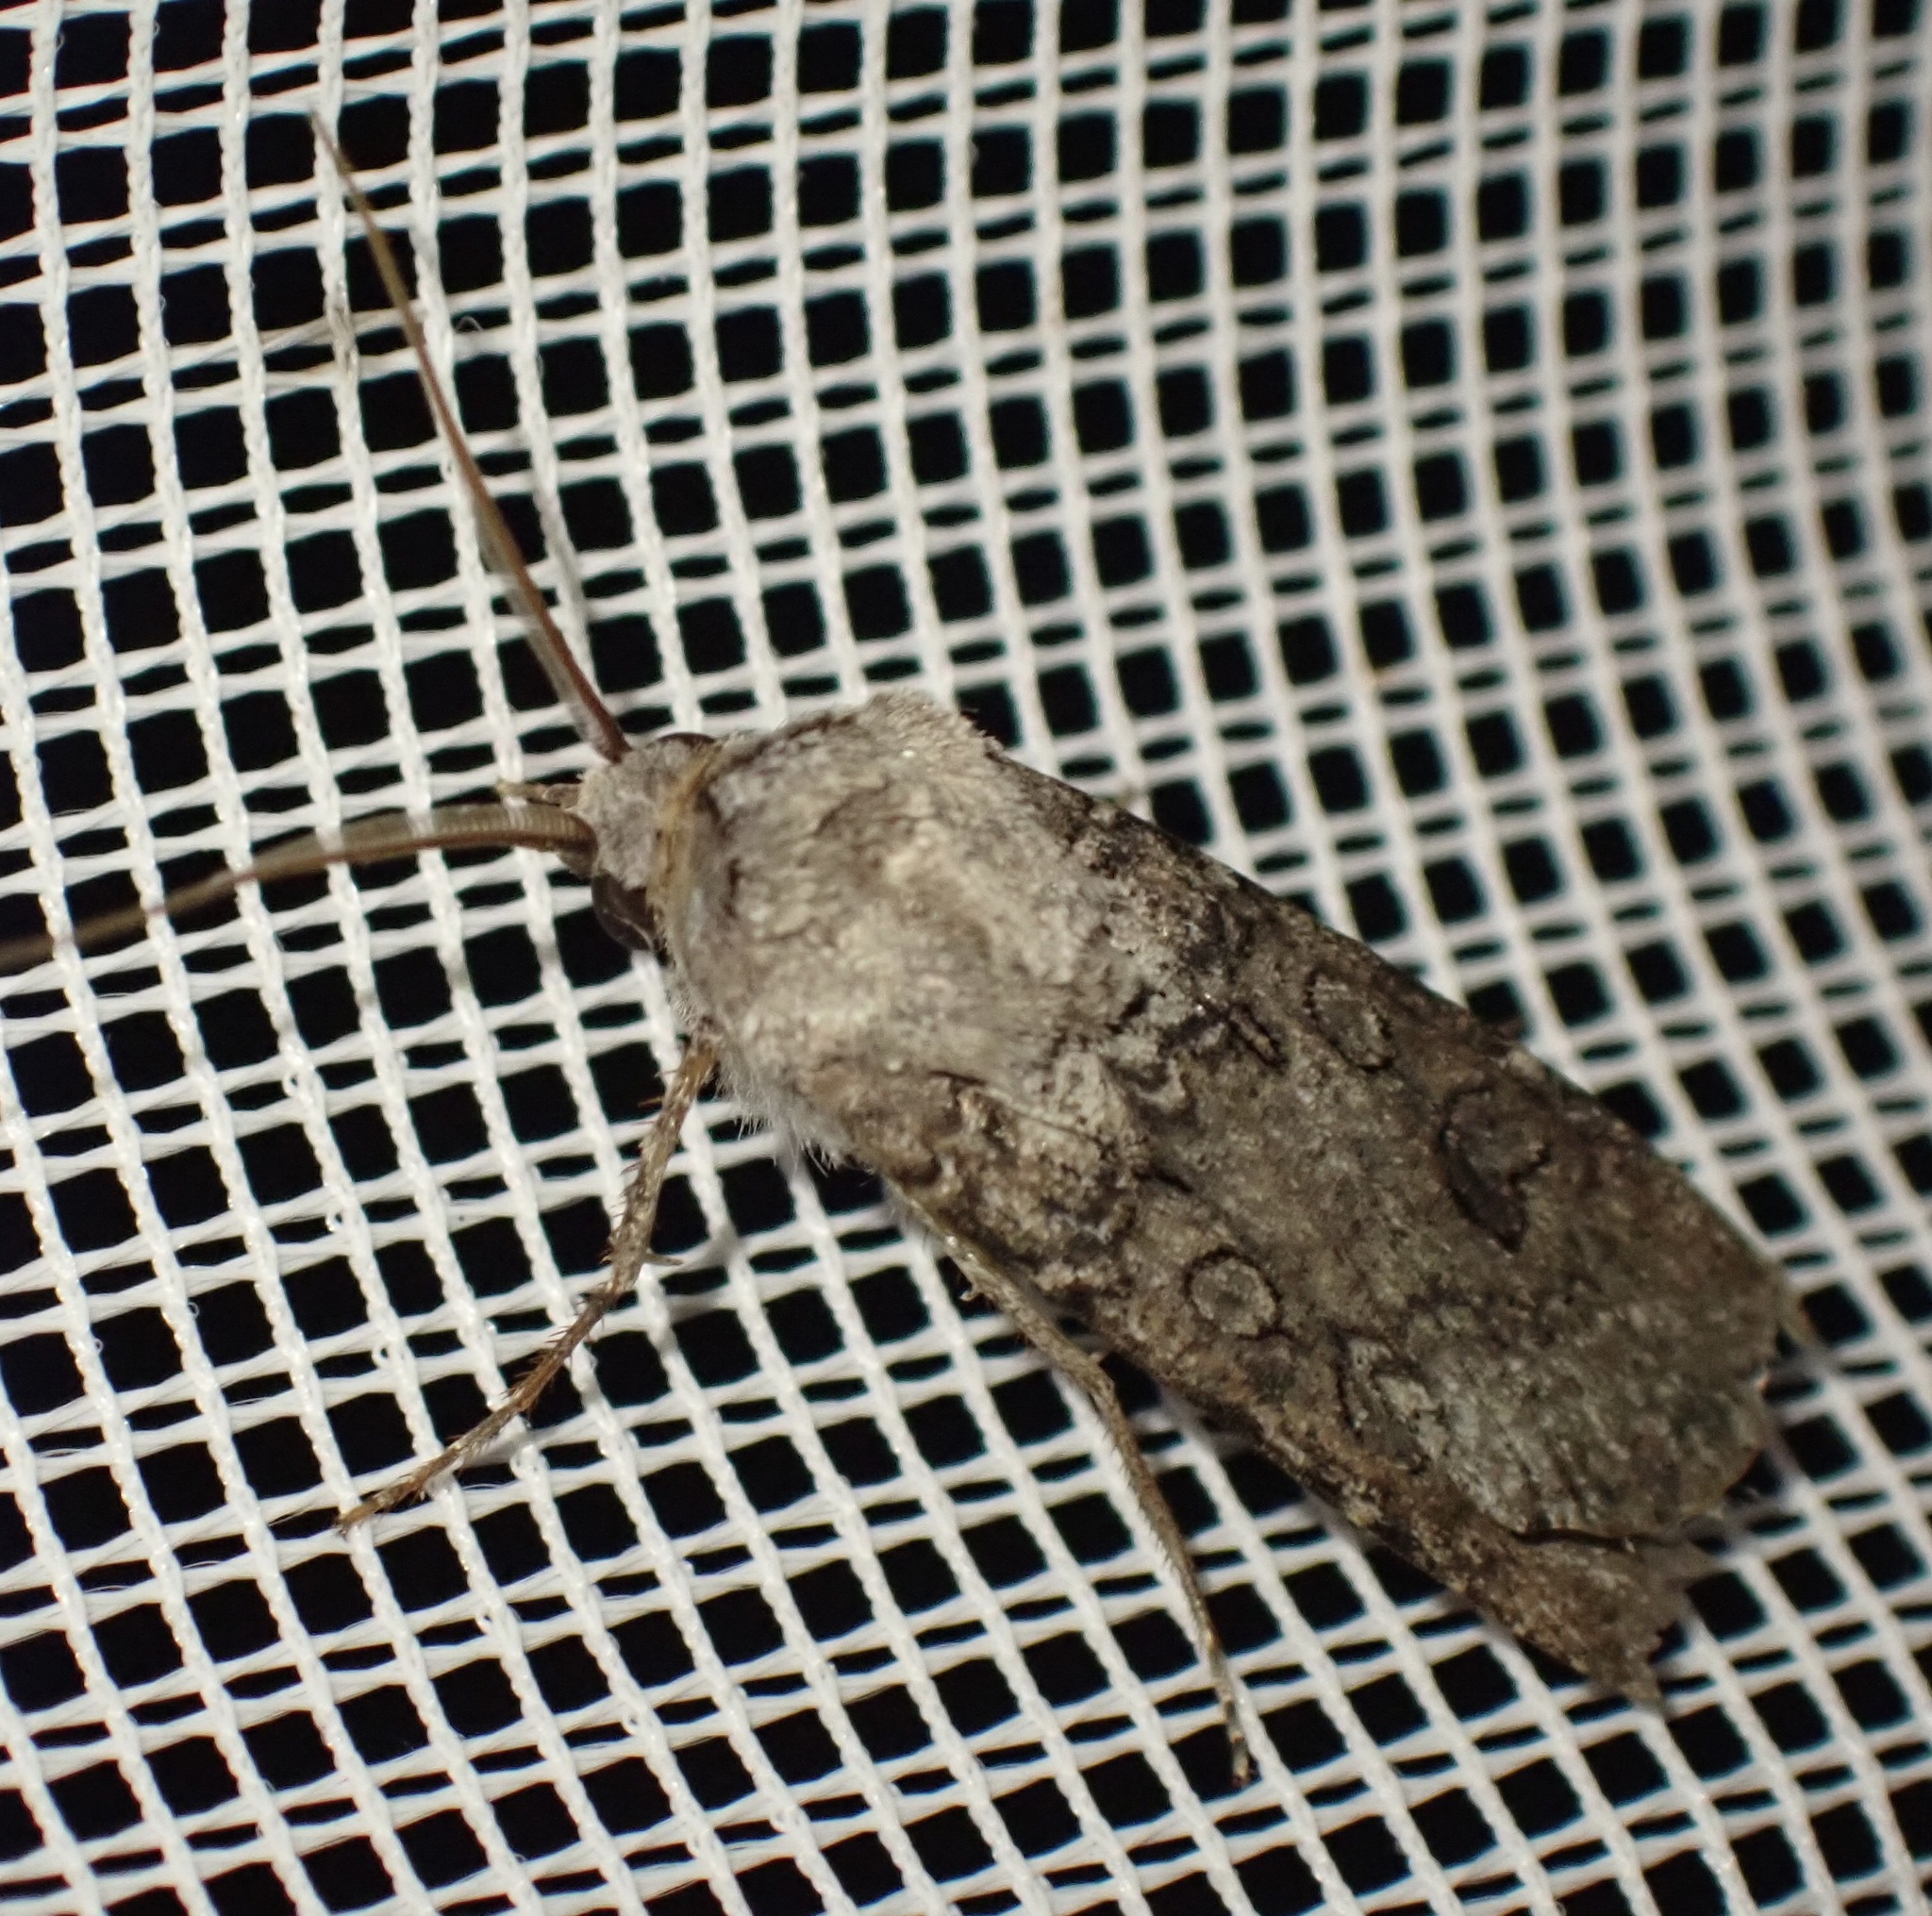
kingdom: Animalia
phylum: Arthropoda
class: Insecta
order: Lepidoptera
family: Noctuidae
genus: Agrotis
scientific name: Agrotis segetum
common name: Turnip moth
